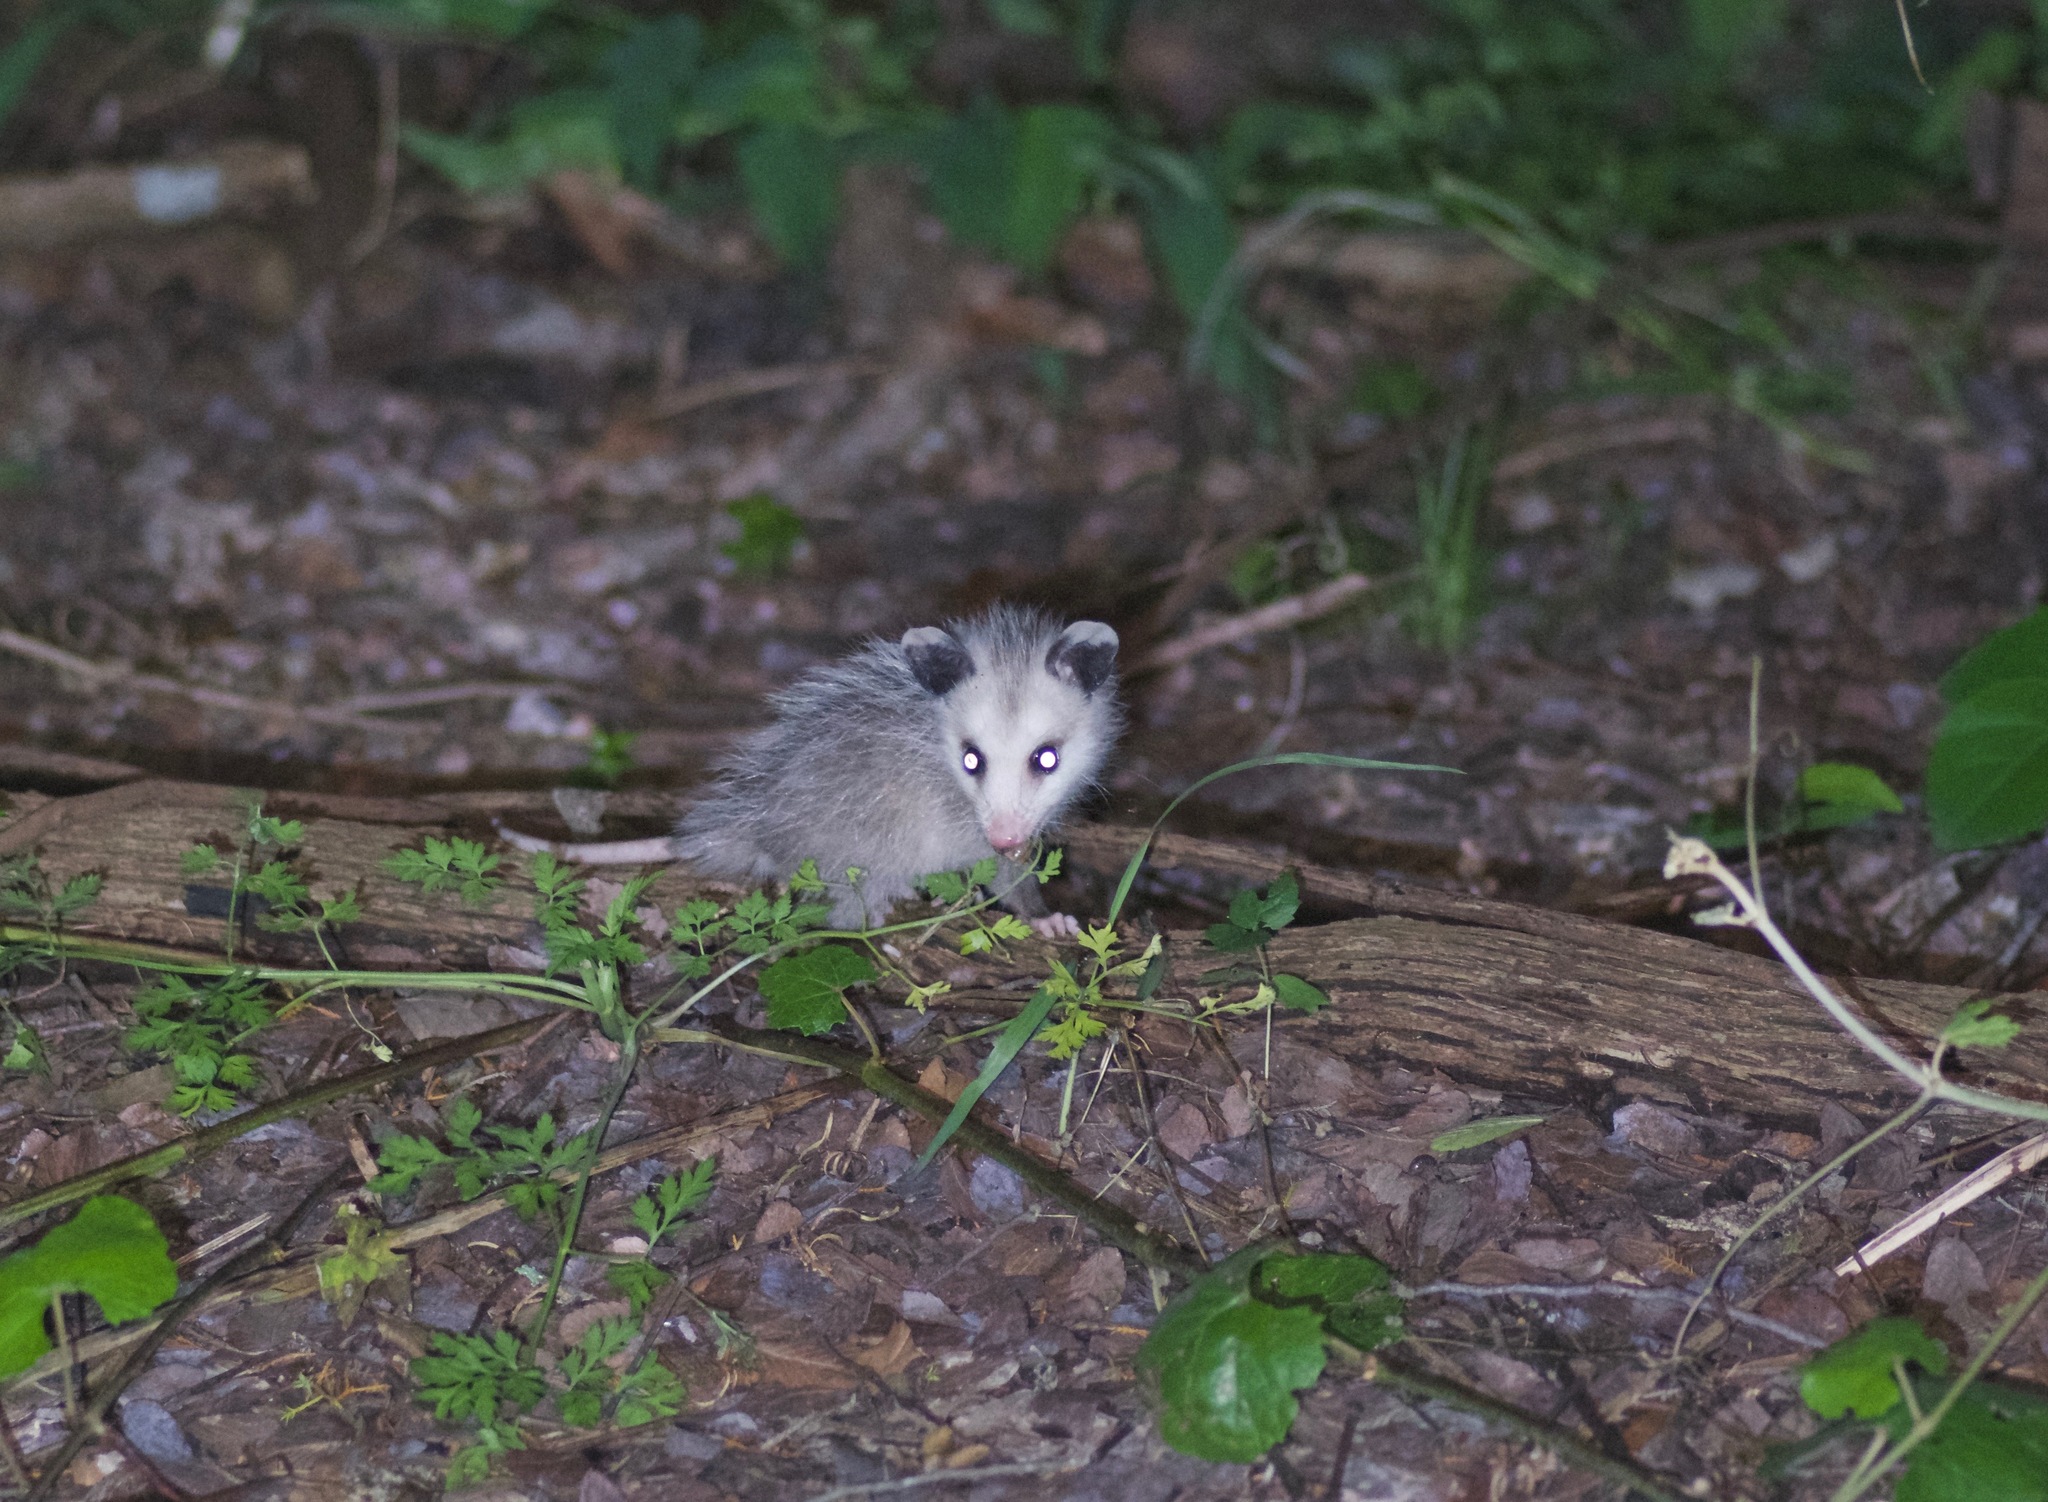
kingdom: Animalia
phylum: Chordata
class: Mammalia
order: Didelphimorphia
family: Didelphidae
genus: Didelphis
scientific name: Didelphis virginiana
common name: Virginia opossum
